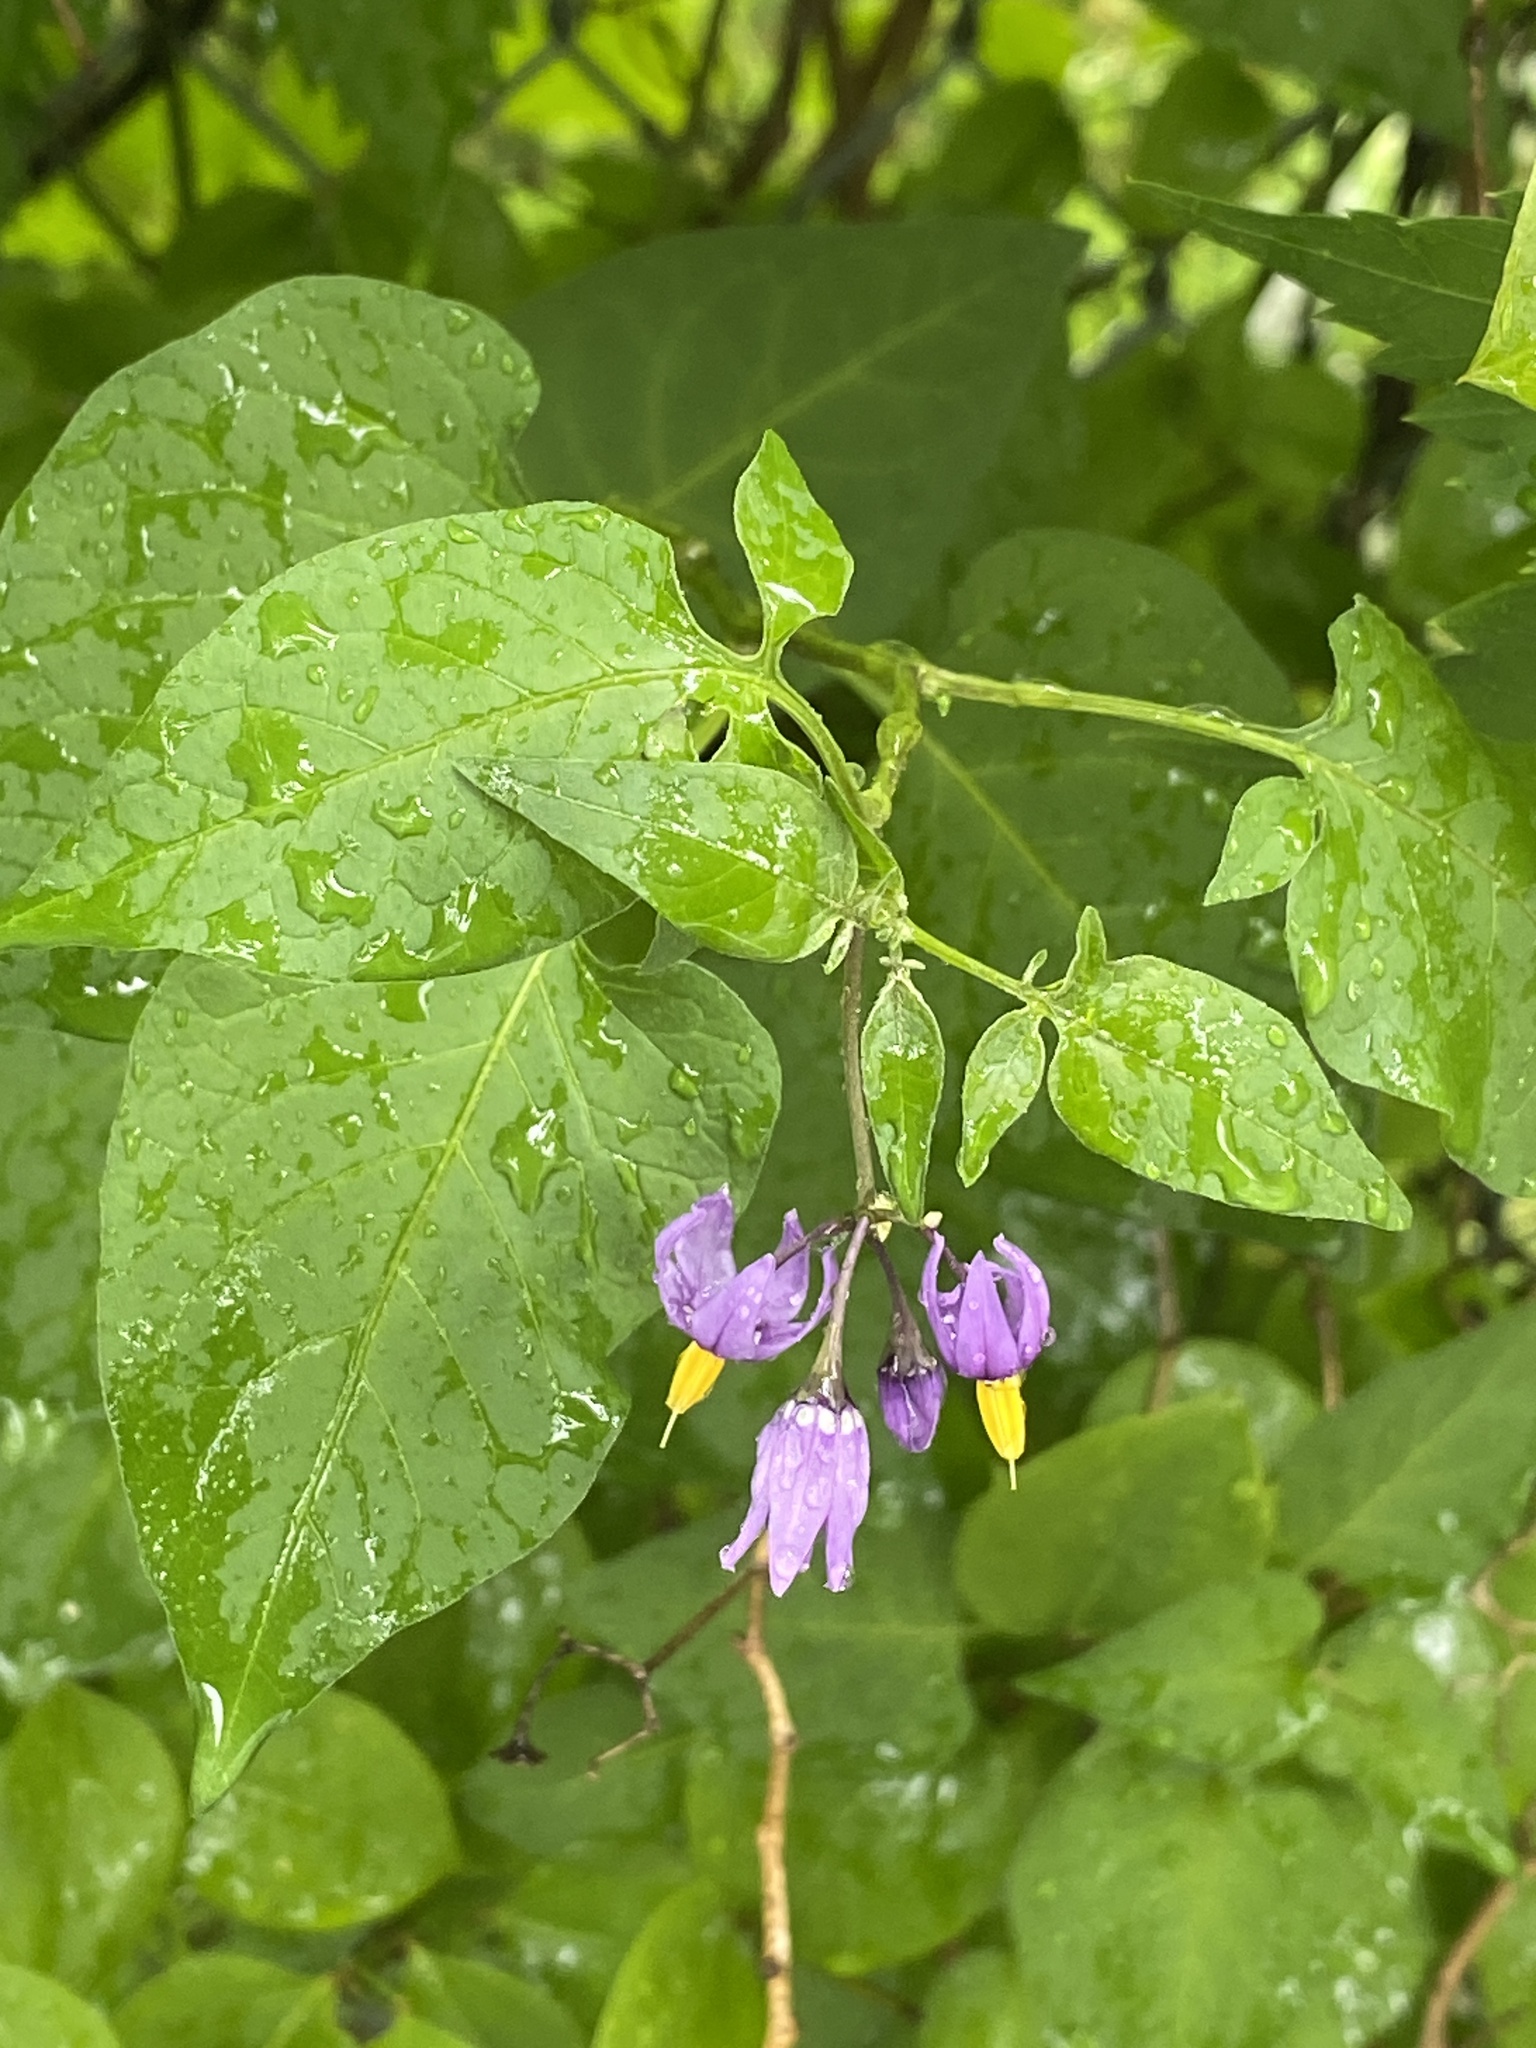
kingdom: Plantae
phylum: Tracheophyta
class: Magnoliopsida
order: Solanales
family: Solanaceae
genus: Solanum
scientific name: Solanum dulcamara
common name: Climbing nightshade
